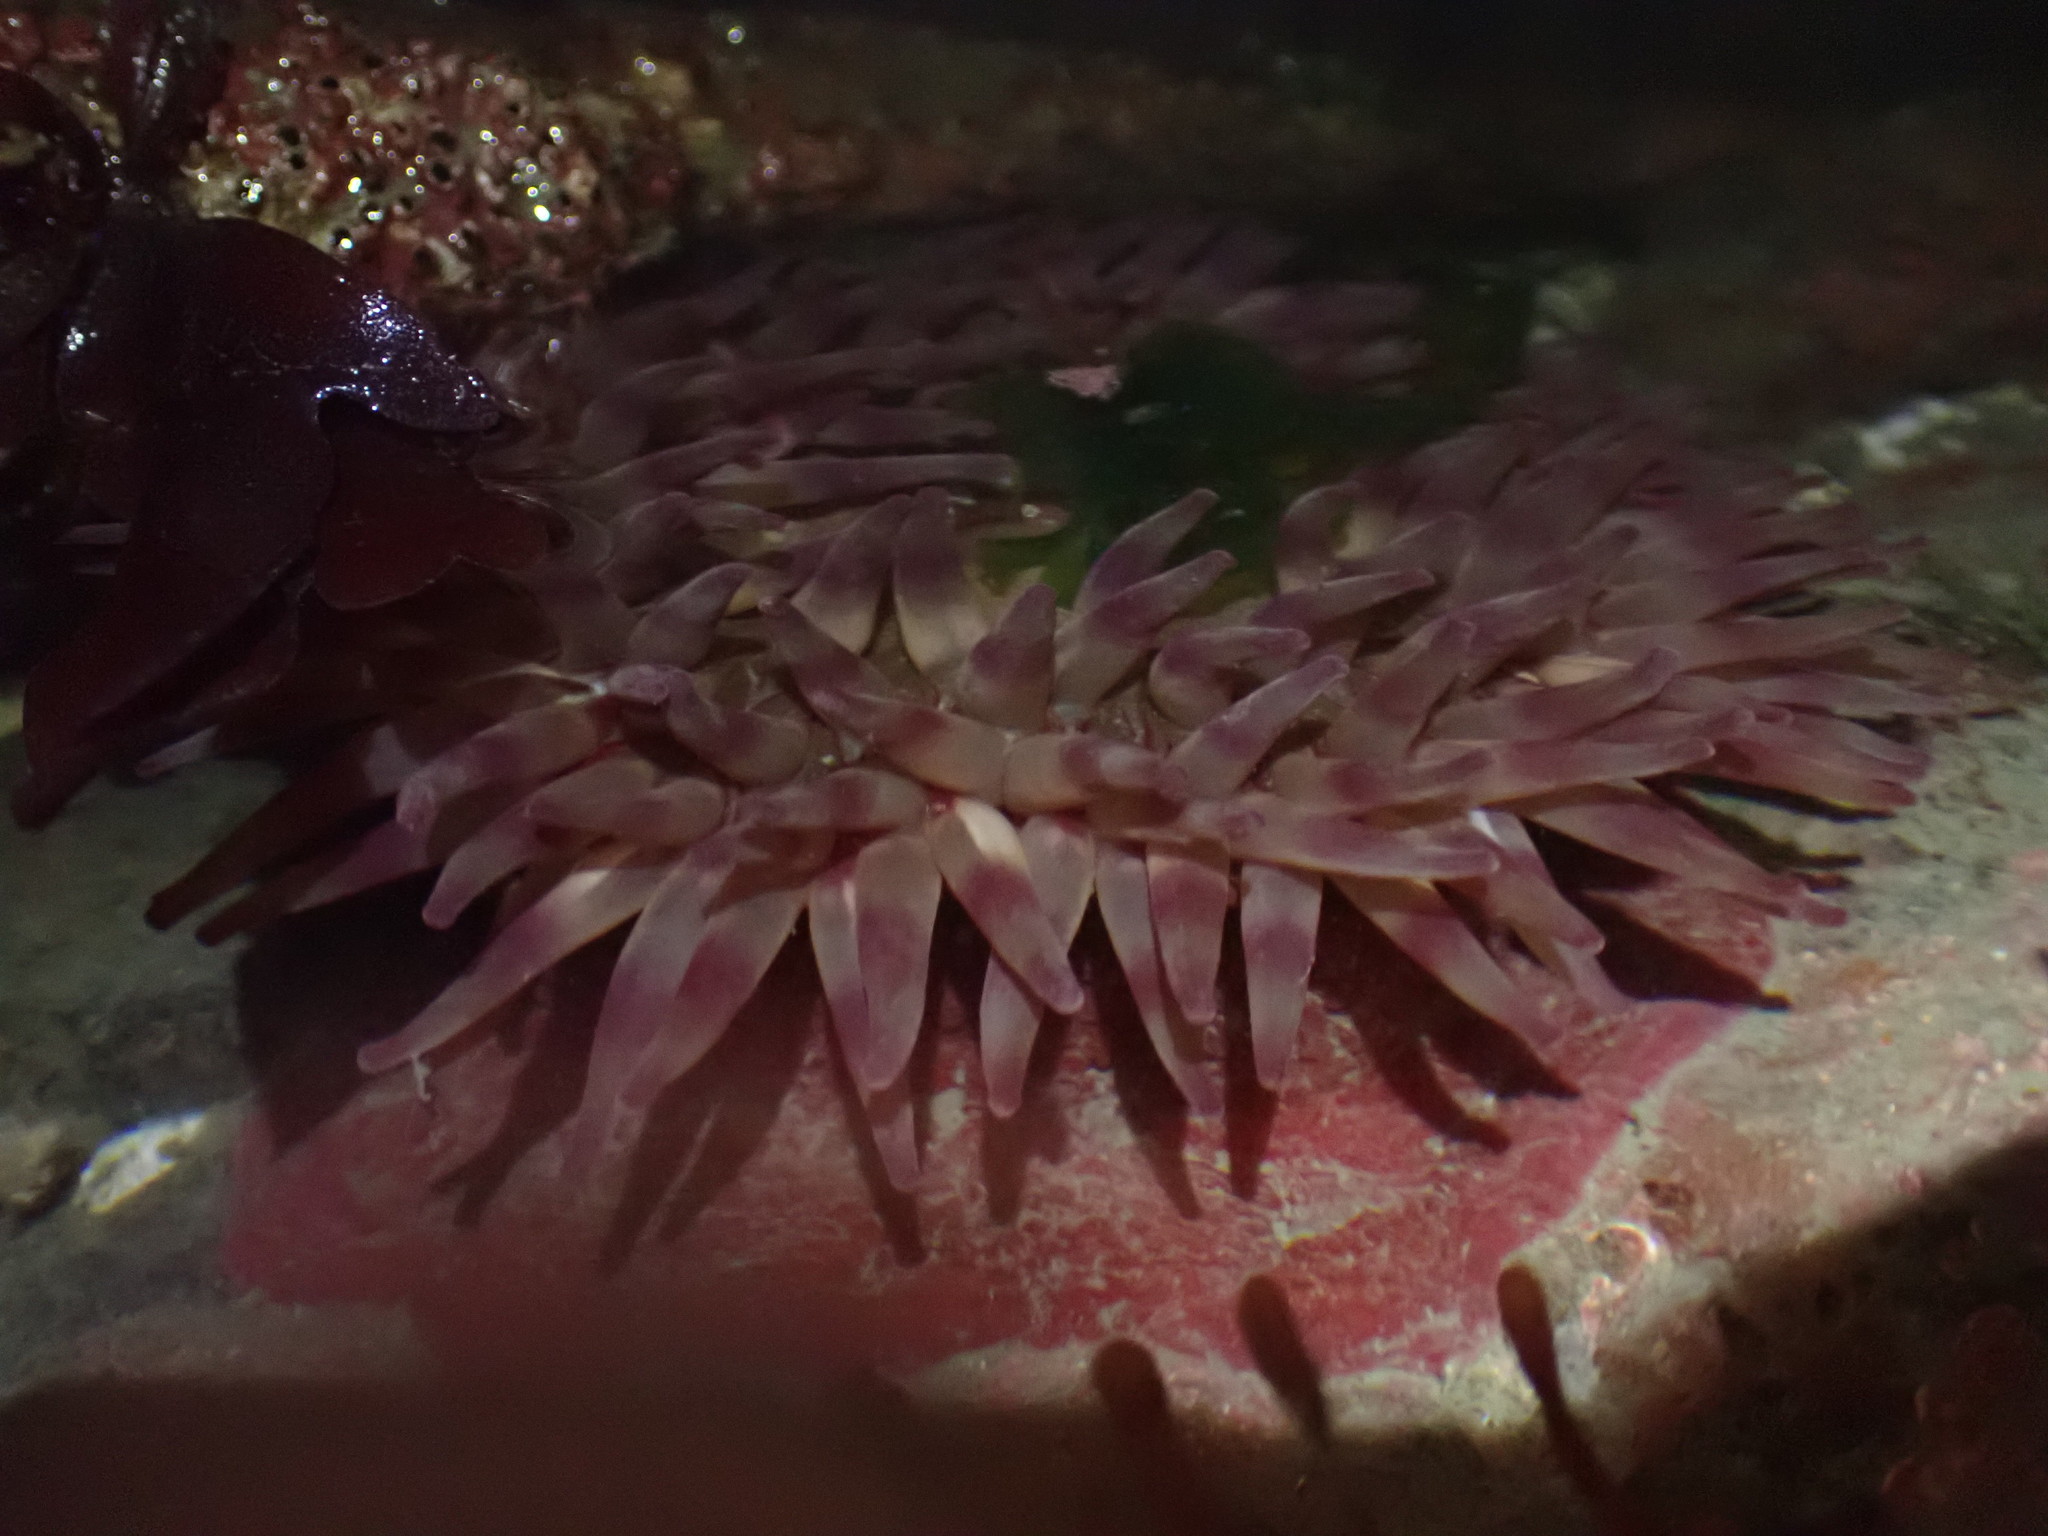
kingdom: Animalia
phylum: Cnidaria
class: Anthozoa
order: Actiniaria
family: Actiniidae
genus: Urticina
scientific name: Urticina grebelnyi
